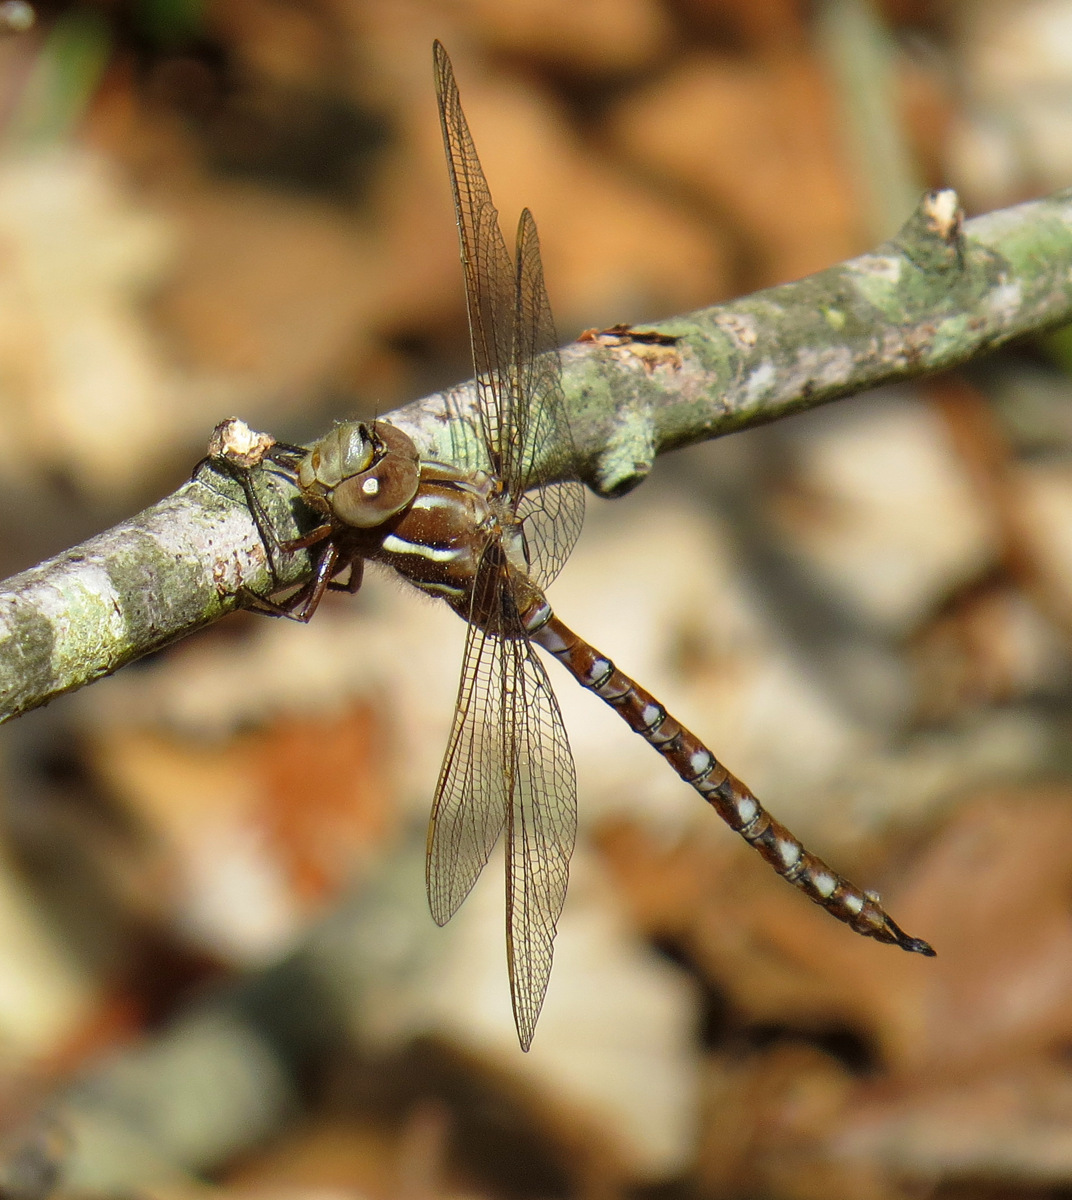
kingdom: Animalia
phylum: Arthropoda
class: Insecta
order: Odonata
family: Aeshnidae
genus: Basiaeschna
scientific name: Basiaeschna janata
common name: Springtime darner
